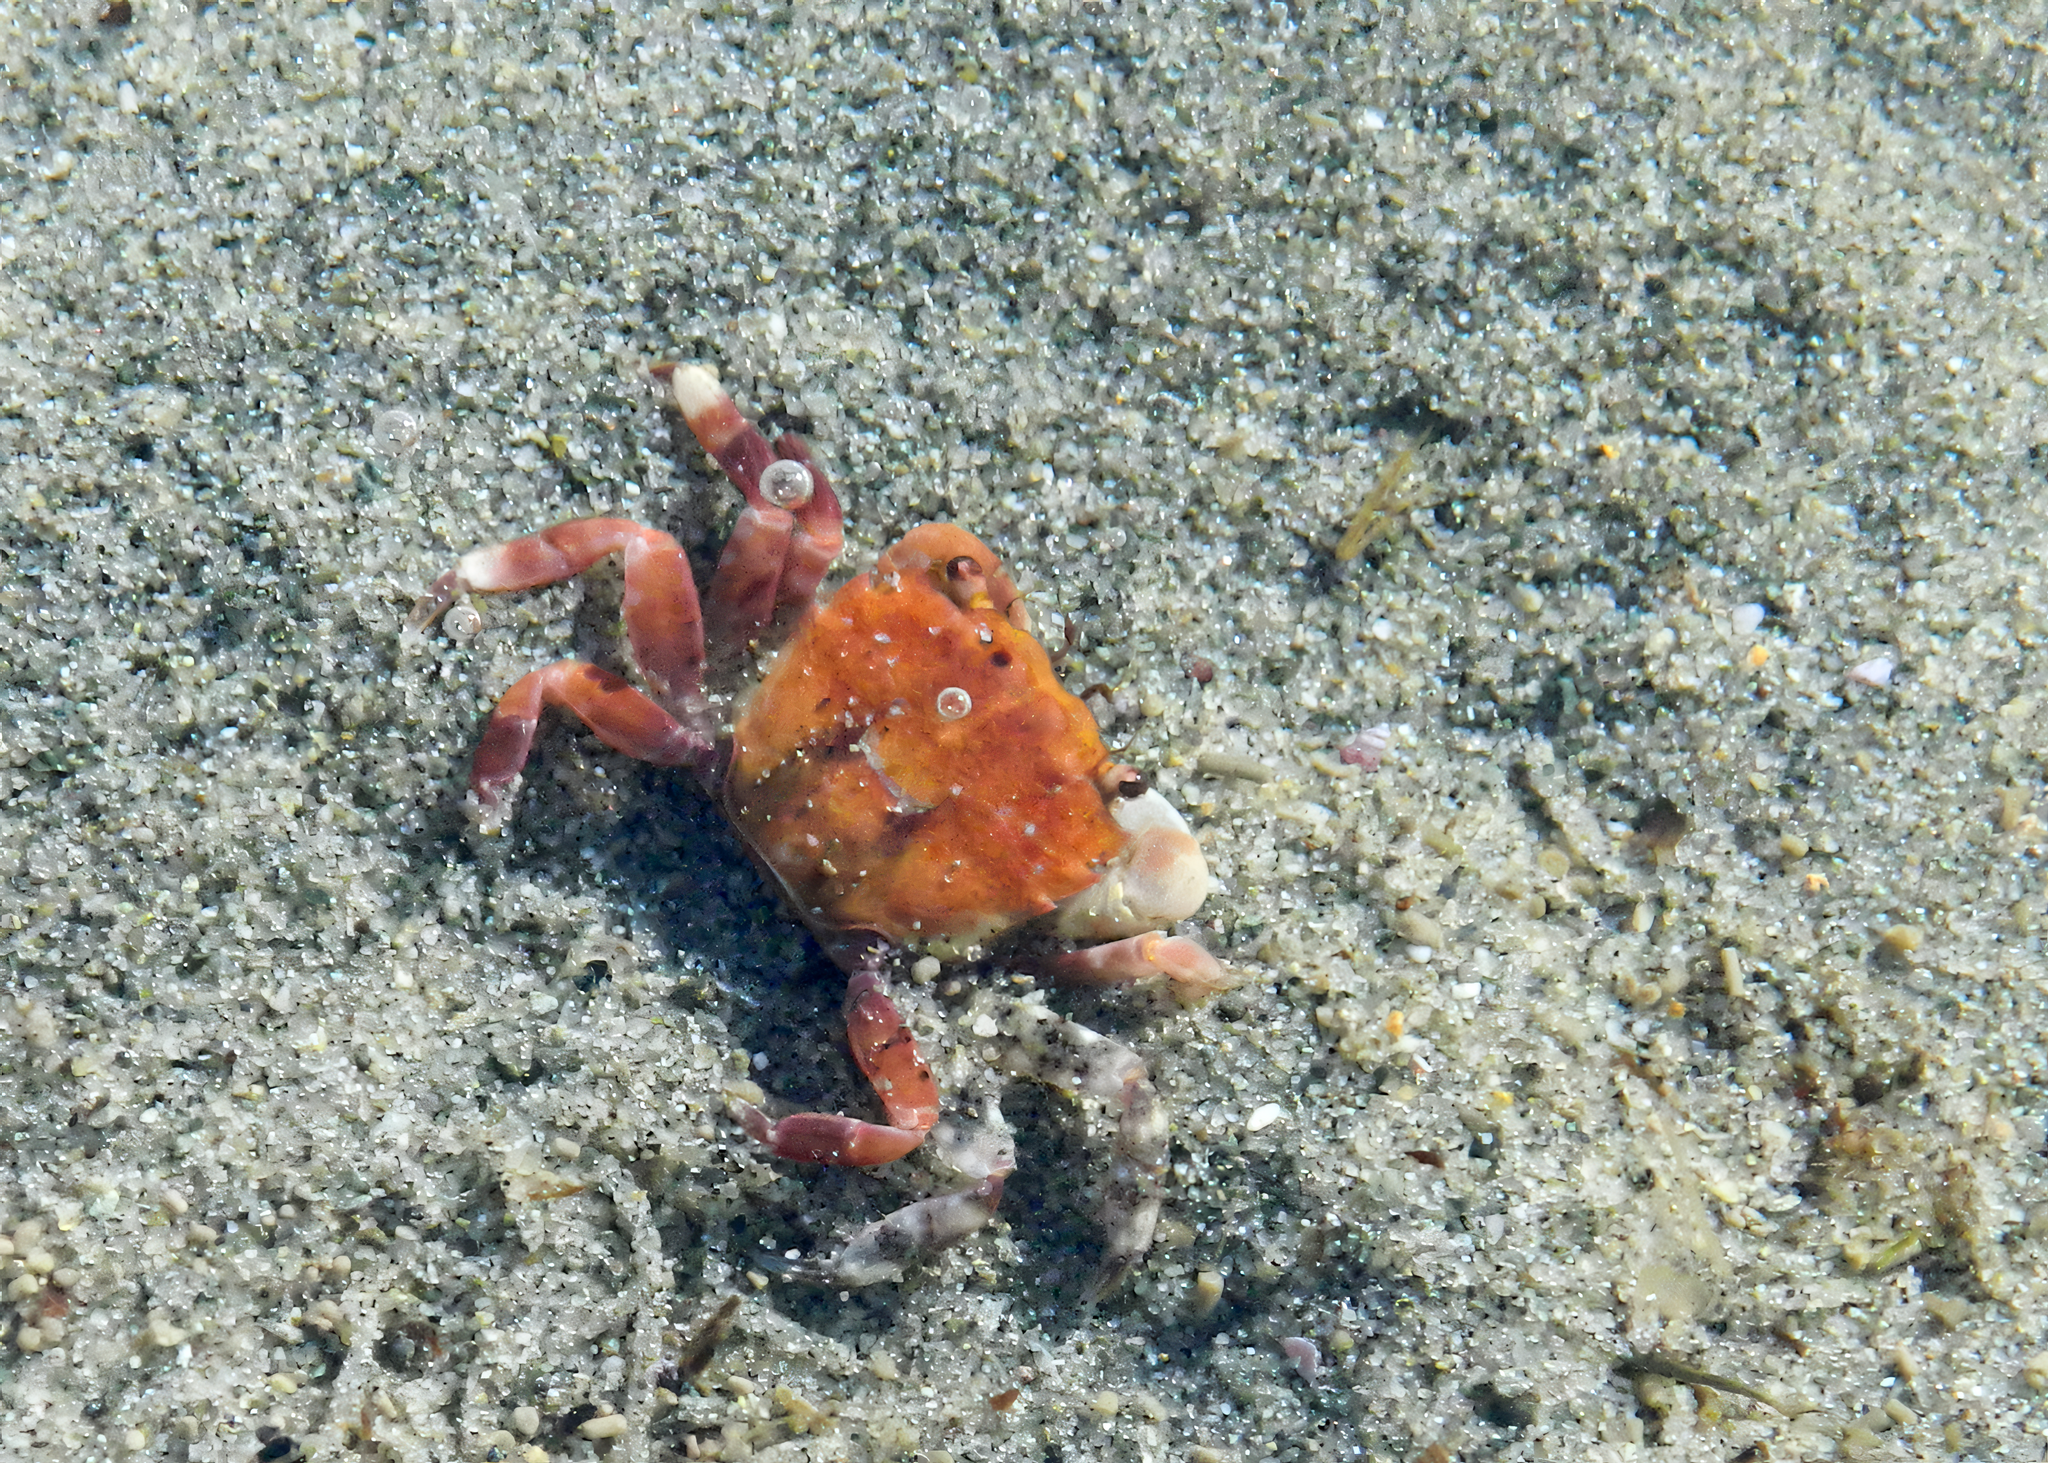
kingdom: Animalia
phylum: Arthropoda
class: Malacostraca
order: Decapoda
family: Varunidae
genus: Hemigrapsus
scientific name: Hemigrapsus oregonensis
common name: Yellow shore crab
